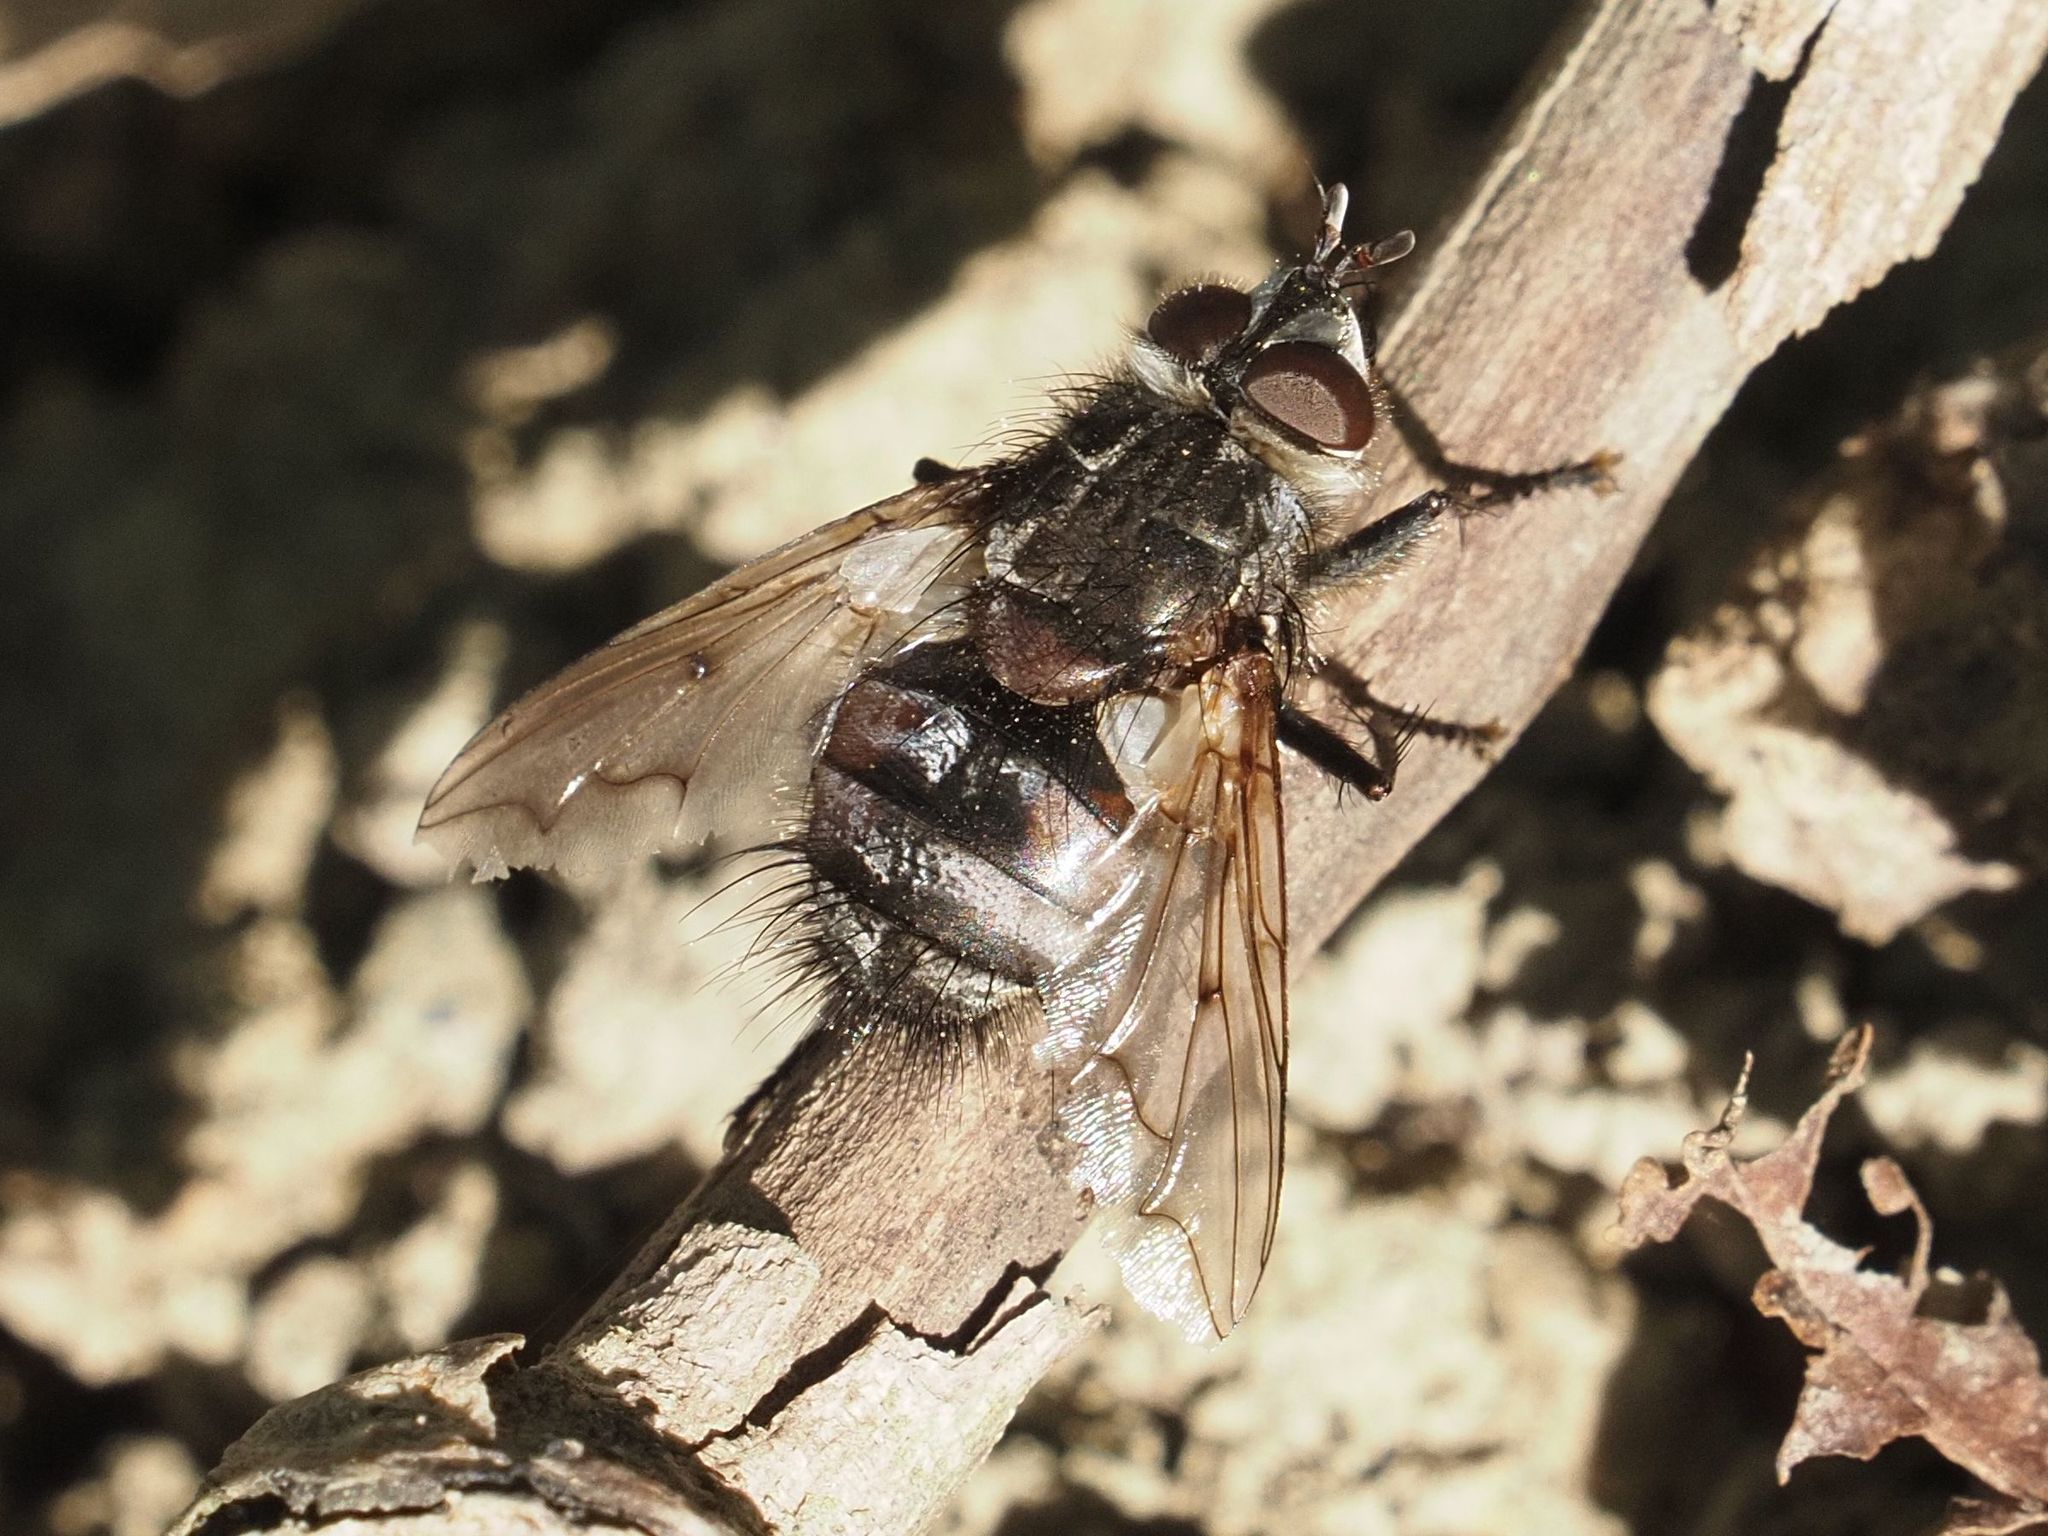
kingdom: Animalia
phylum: Arthropoda
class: Insecta
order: Diptera
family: Tachinidae
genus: Panzeria
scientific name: Panzeria puparum
